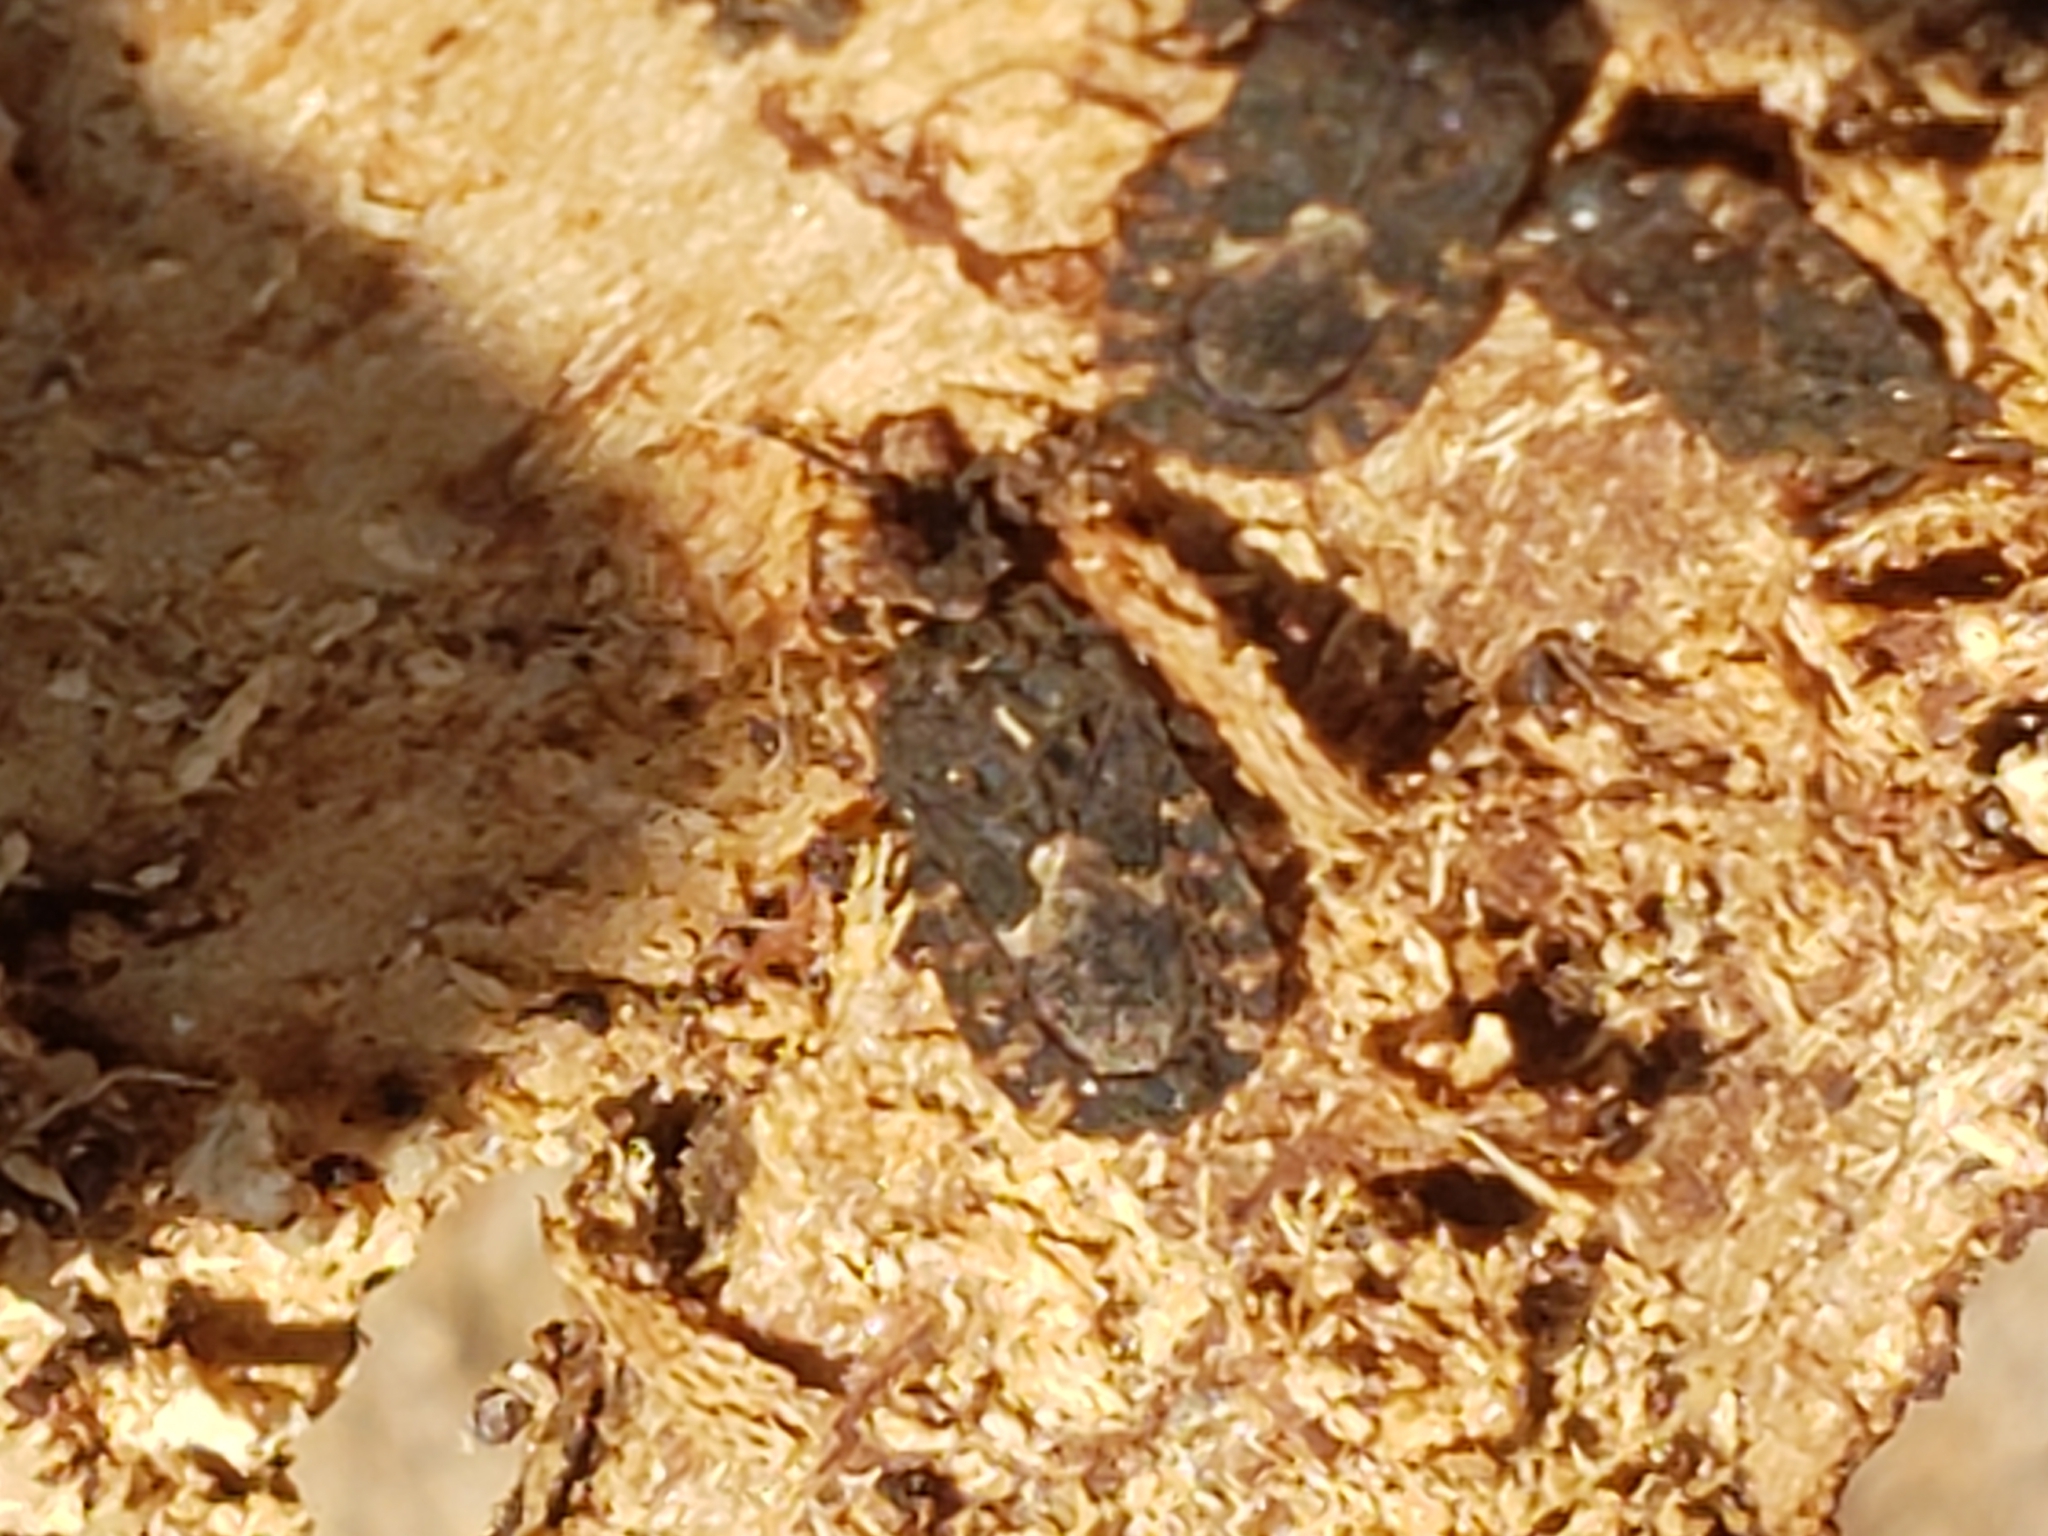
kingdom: Animalia
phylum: Arthropoda
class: Insecta
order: Hemiptera
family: Aradidae
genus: Mezira
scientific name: Mezira
